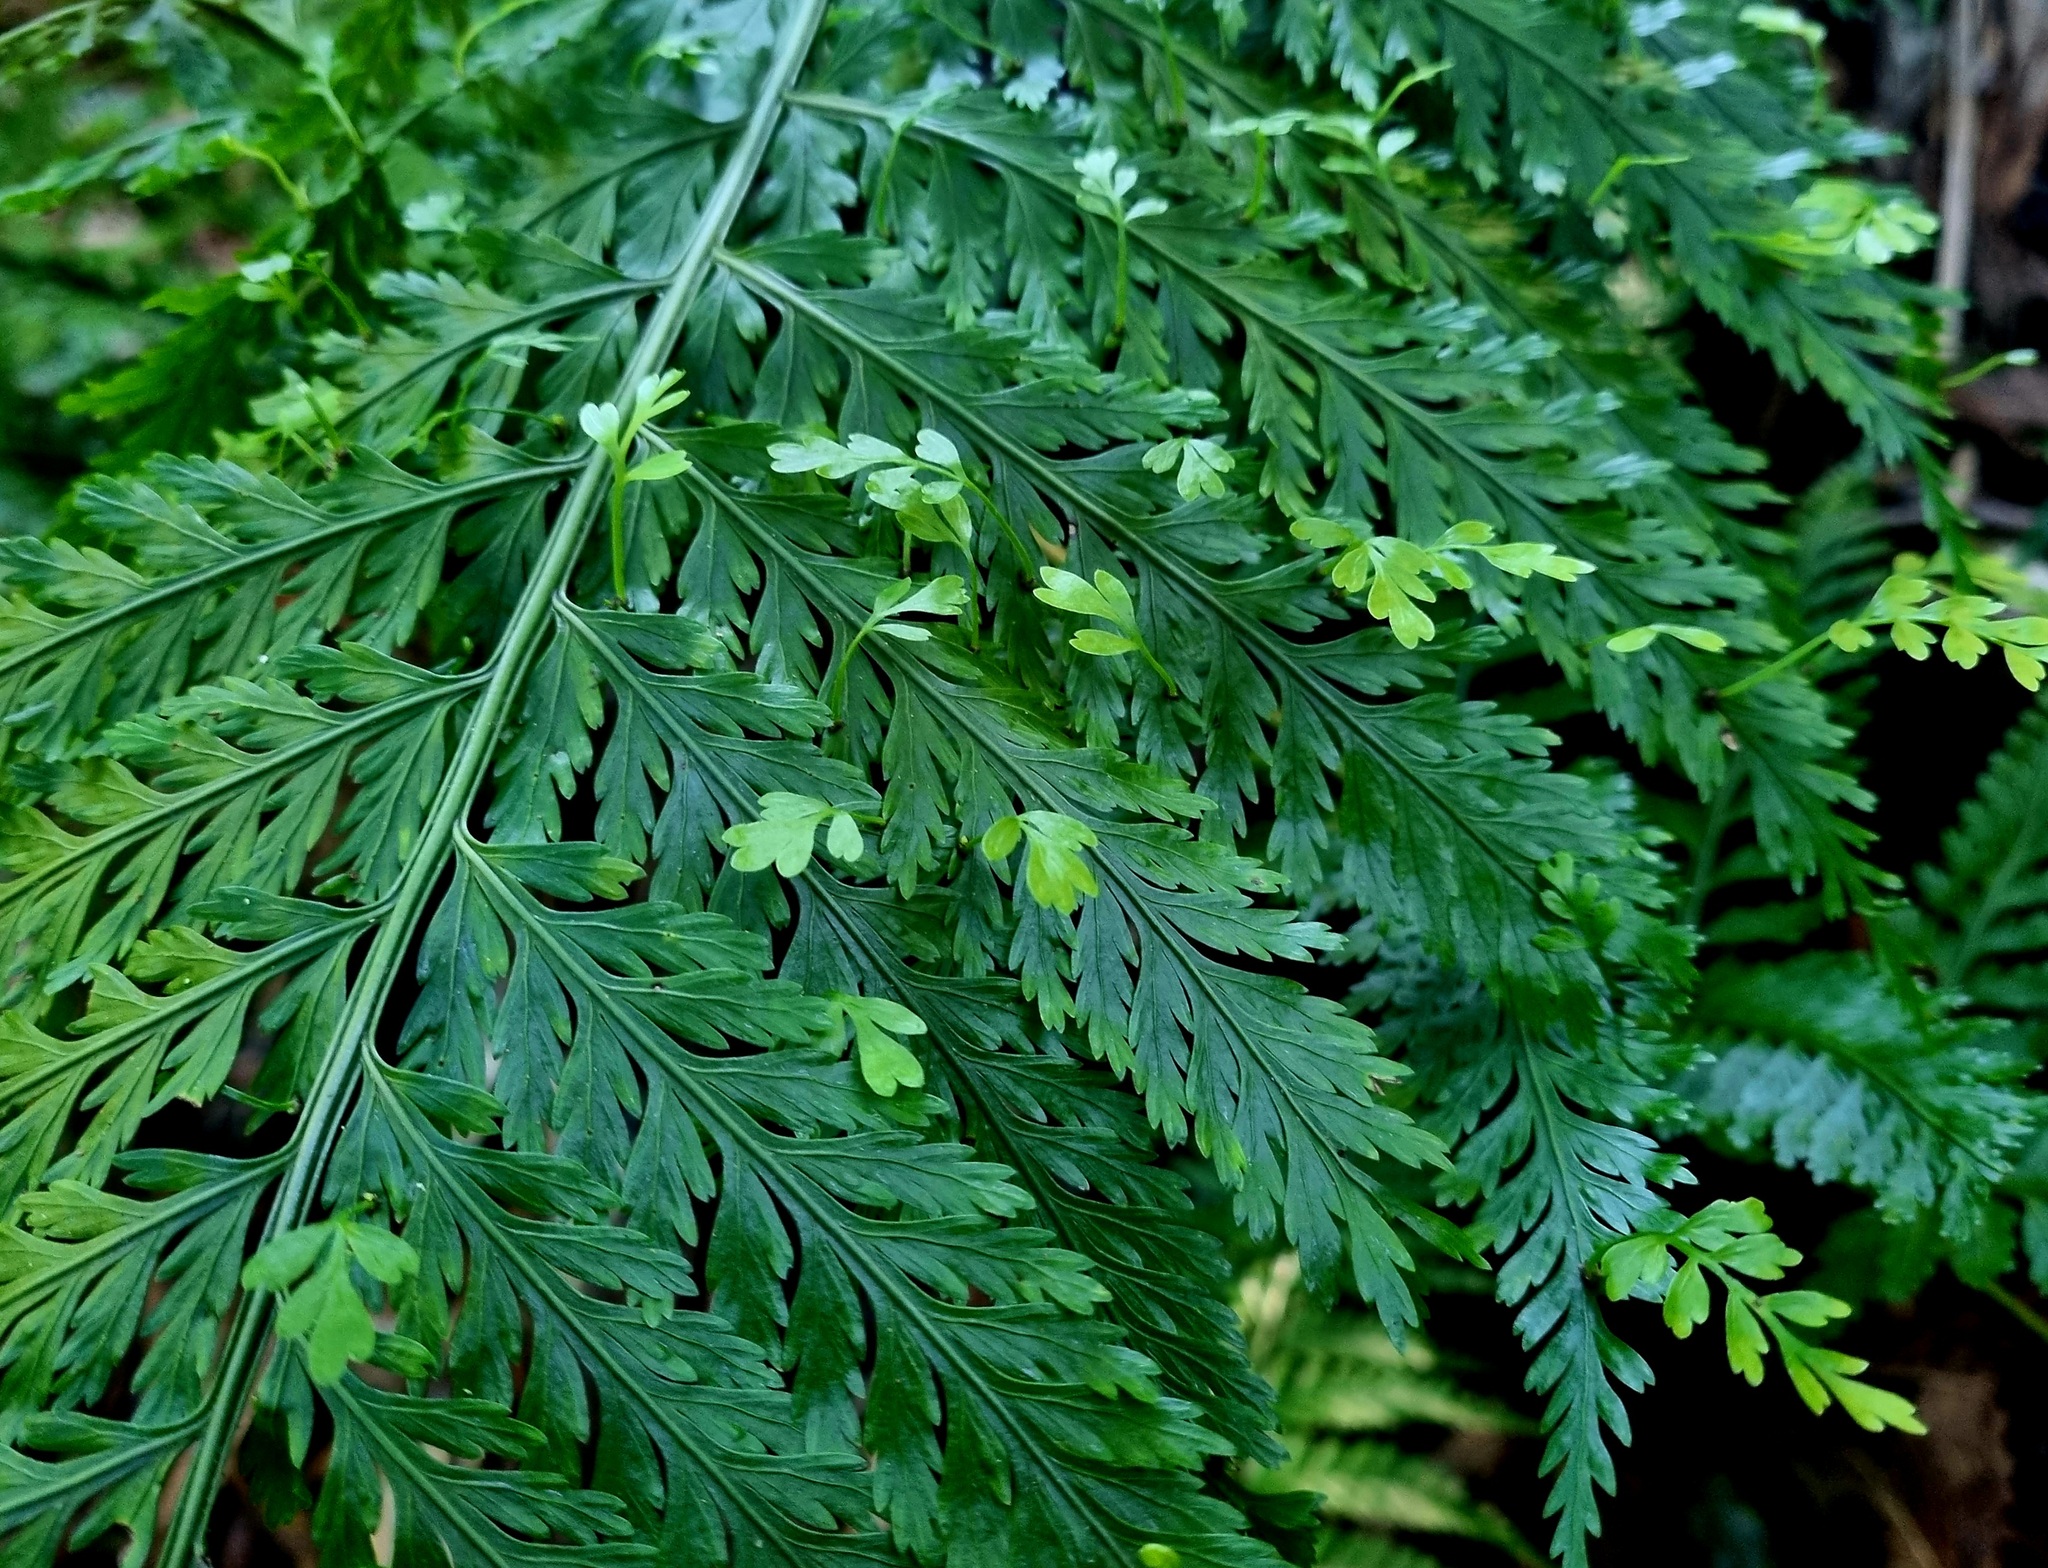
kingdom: Plantae
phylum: Tracheophyta
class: Polypodiopsida
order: Polypodiales
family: Aspleniaceae
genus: Asplenium
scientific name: Asplenium bulbiferum
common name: Mother fern
